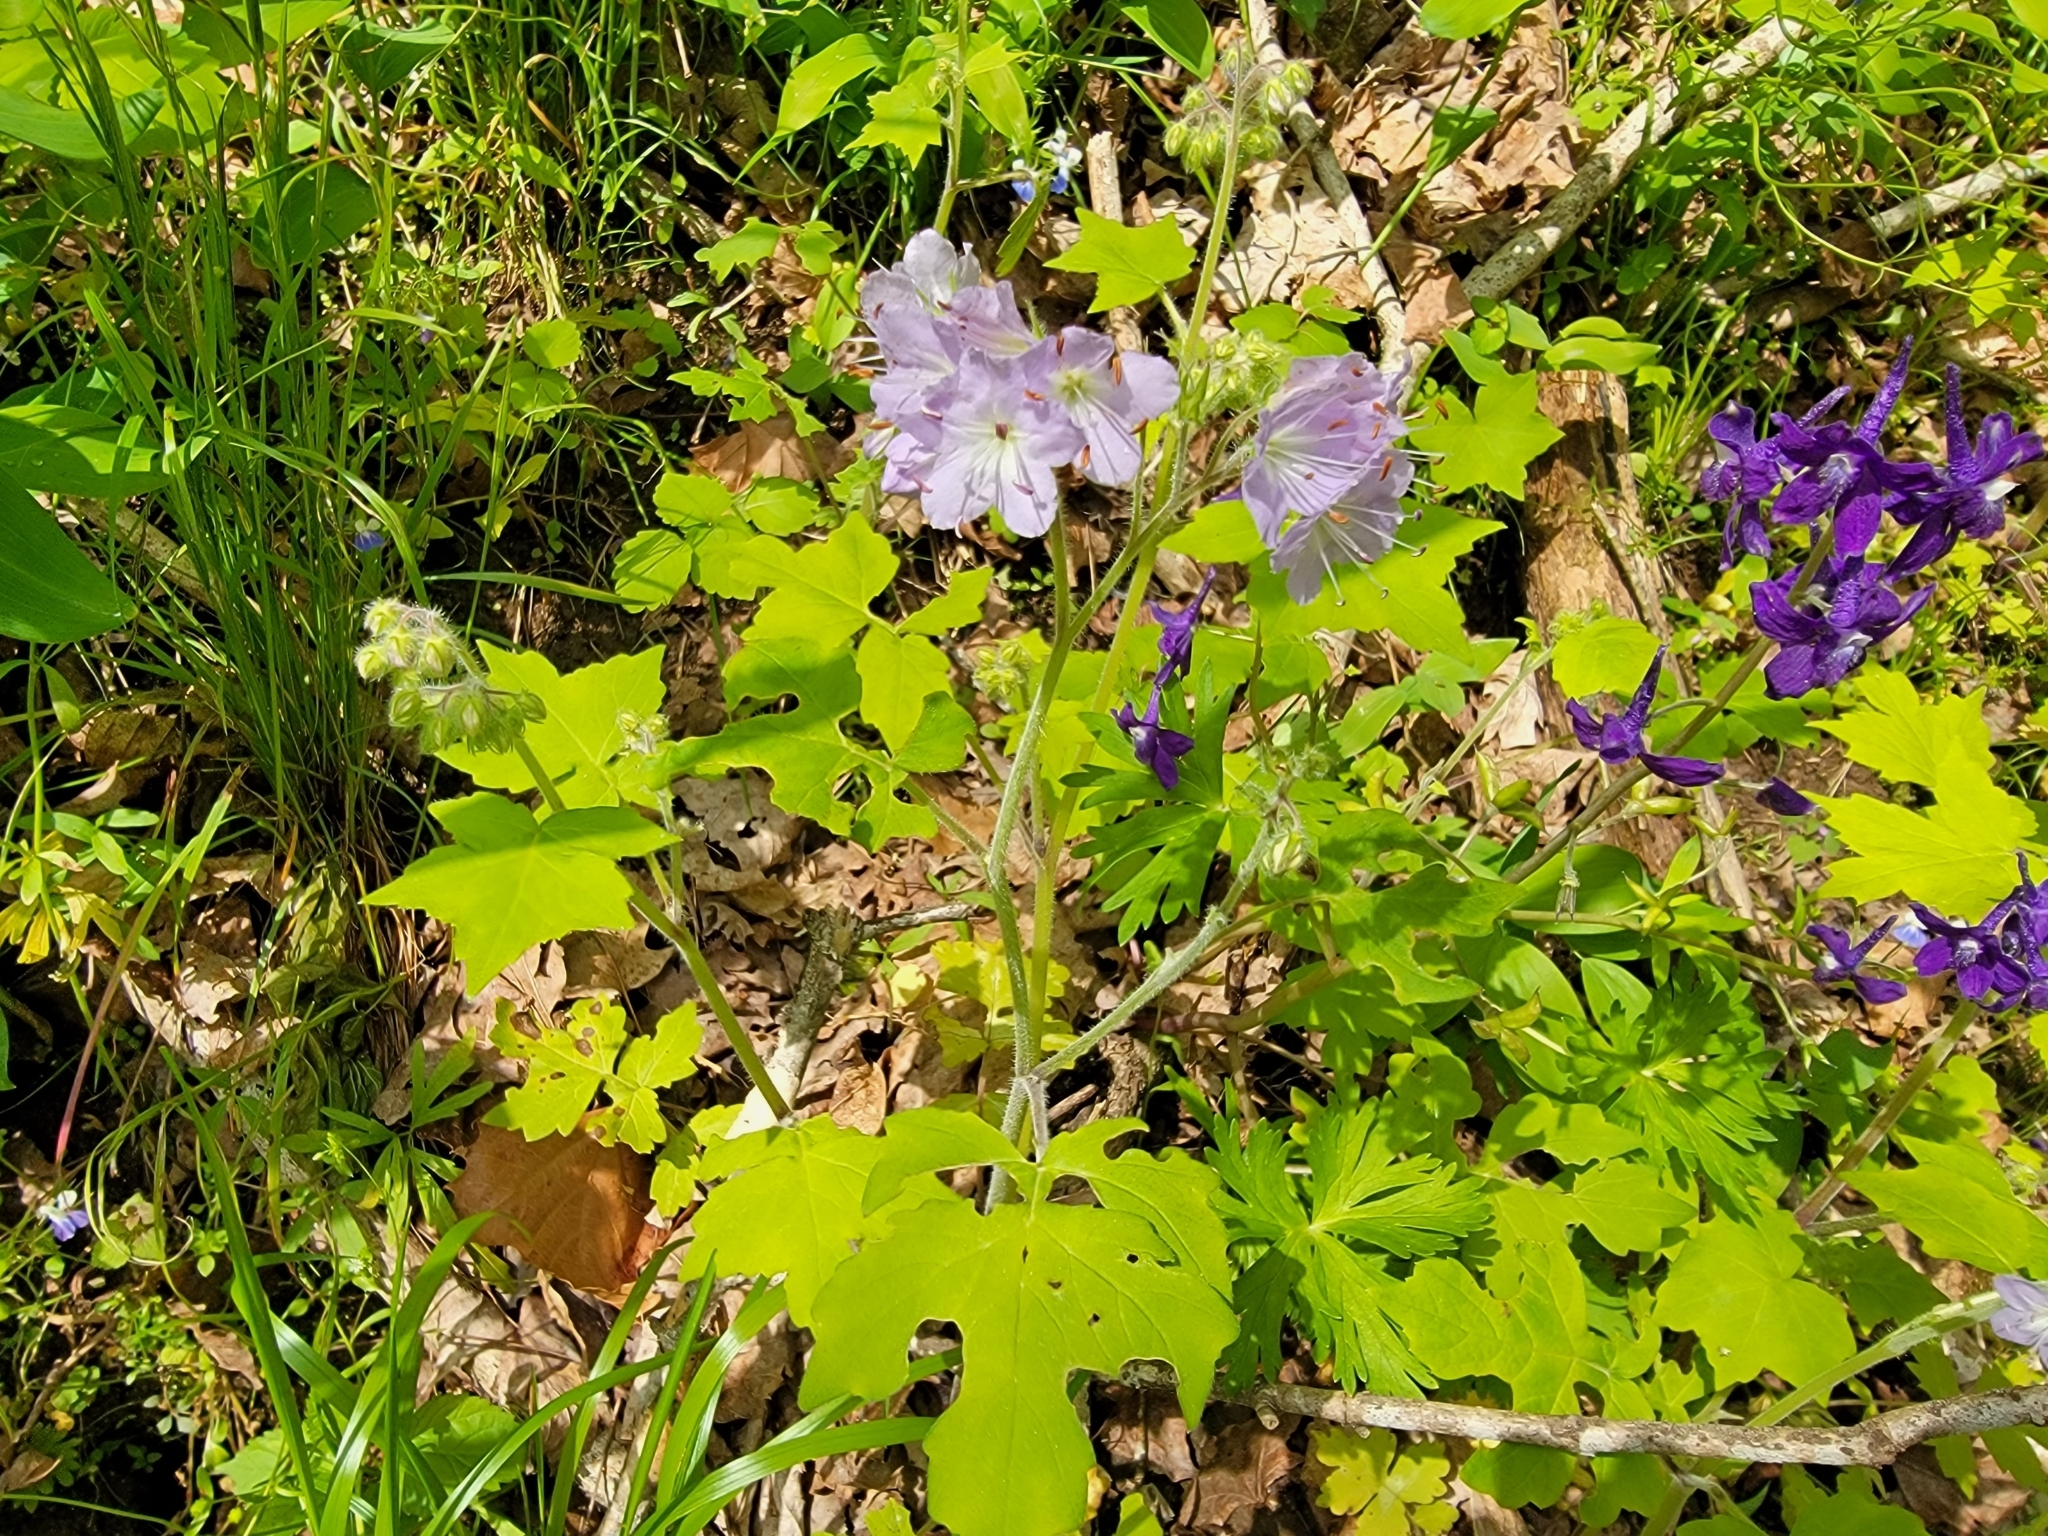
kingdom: Plantae
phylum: Tracheophyta
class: Magnoliopsida
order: Boraginales
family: Hydrophyllaceae
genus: Hydrophyllum
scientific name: Hydrophyllum appendiculatum
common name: Appendaged waterleaf
